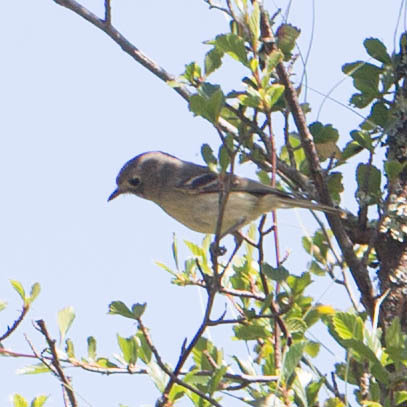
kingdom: Animalia
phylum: Chordata
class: Aves
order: Passeriformes
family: Vireonidae
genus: Vireo
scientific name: Vireo huttoni
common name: Hutton's vireo
